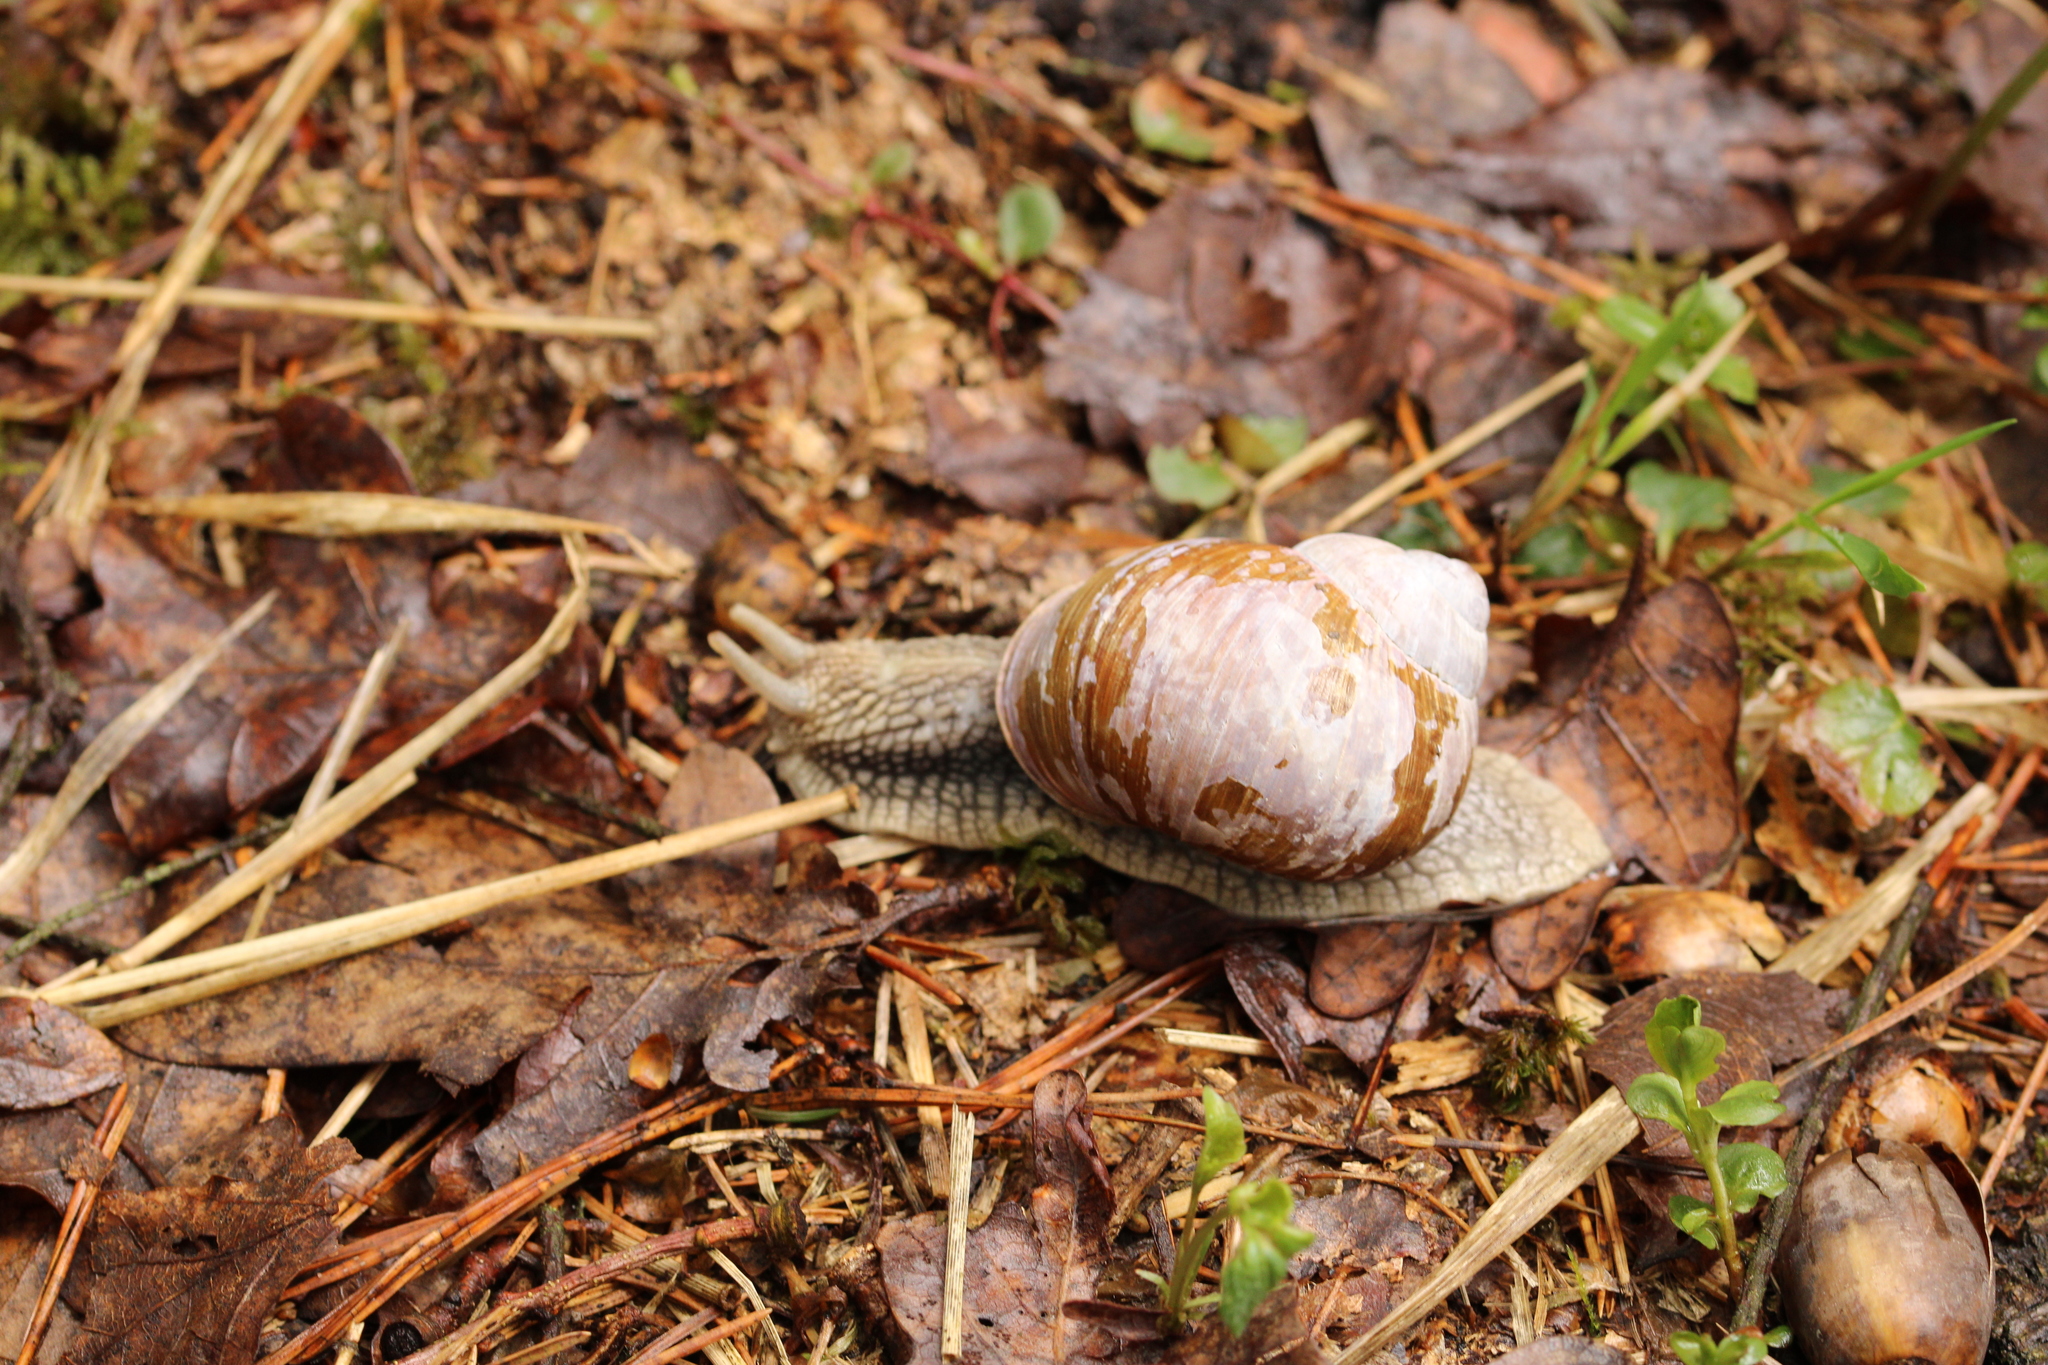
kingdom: Animalia
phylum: Mollusca
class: Gastropoda
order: Stylommatophora
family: Helicidae
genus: Helix
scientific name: Helix pomatia
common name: Roman snail
